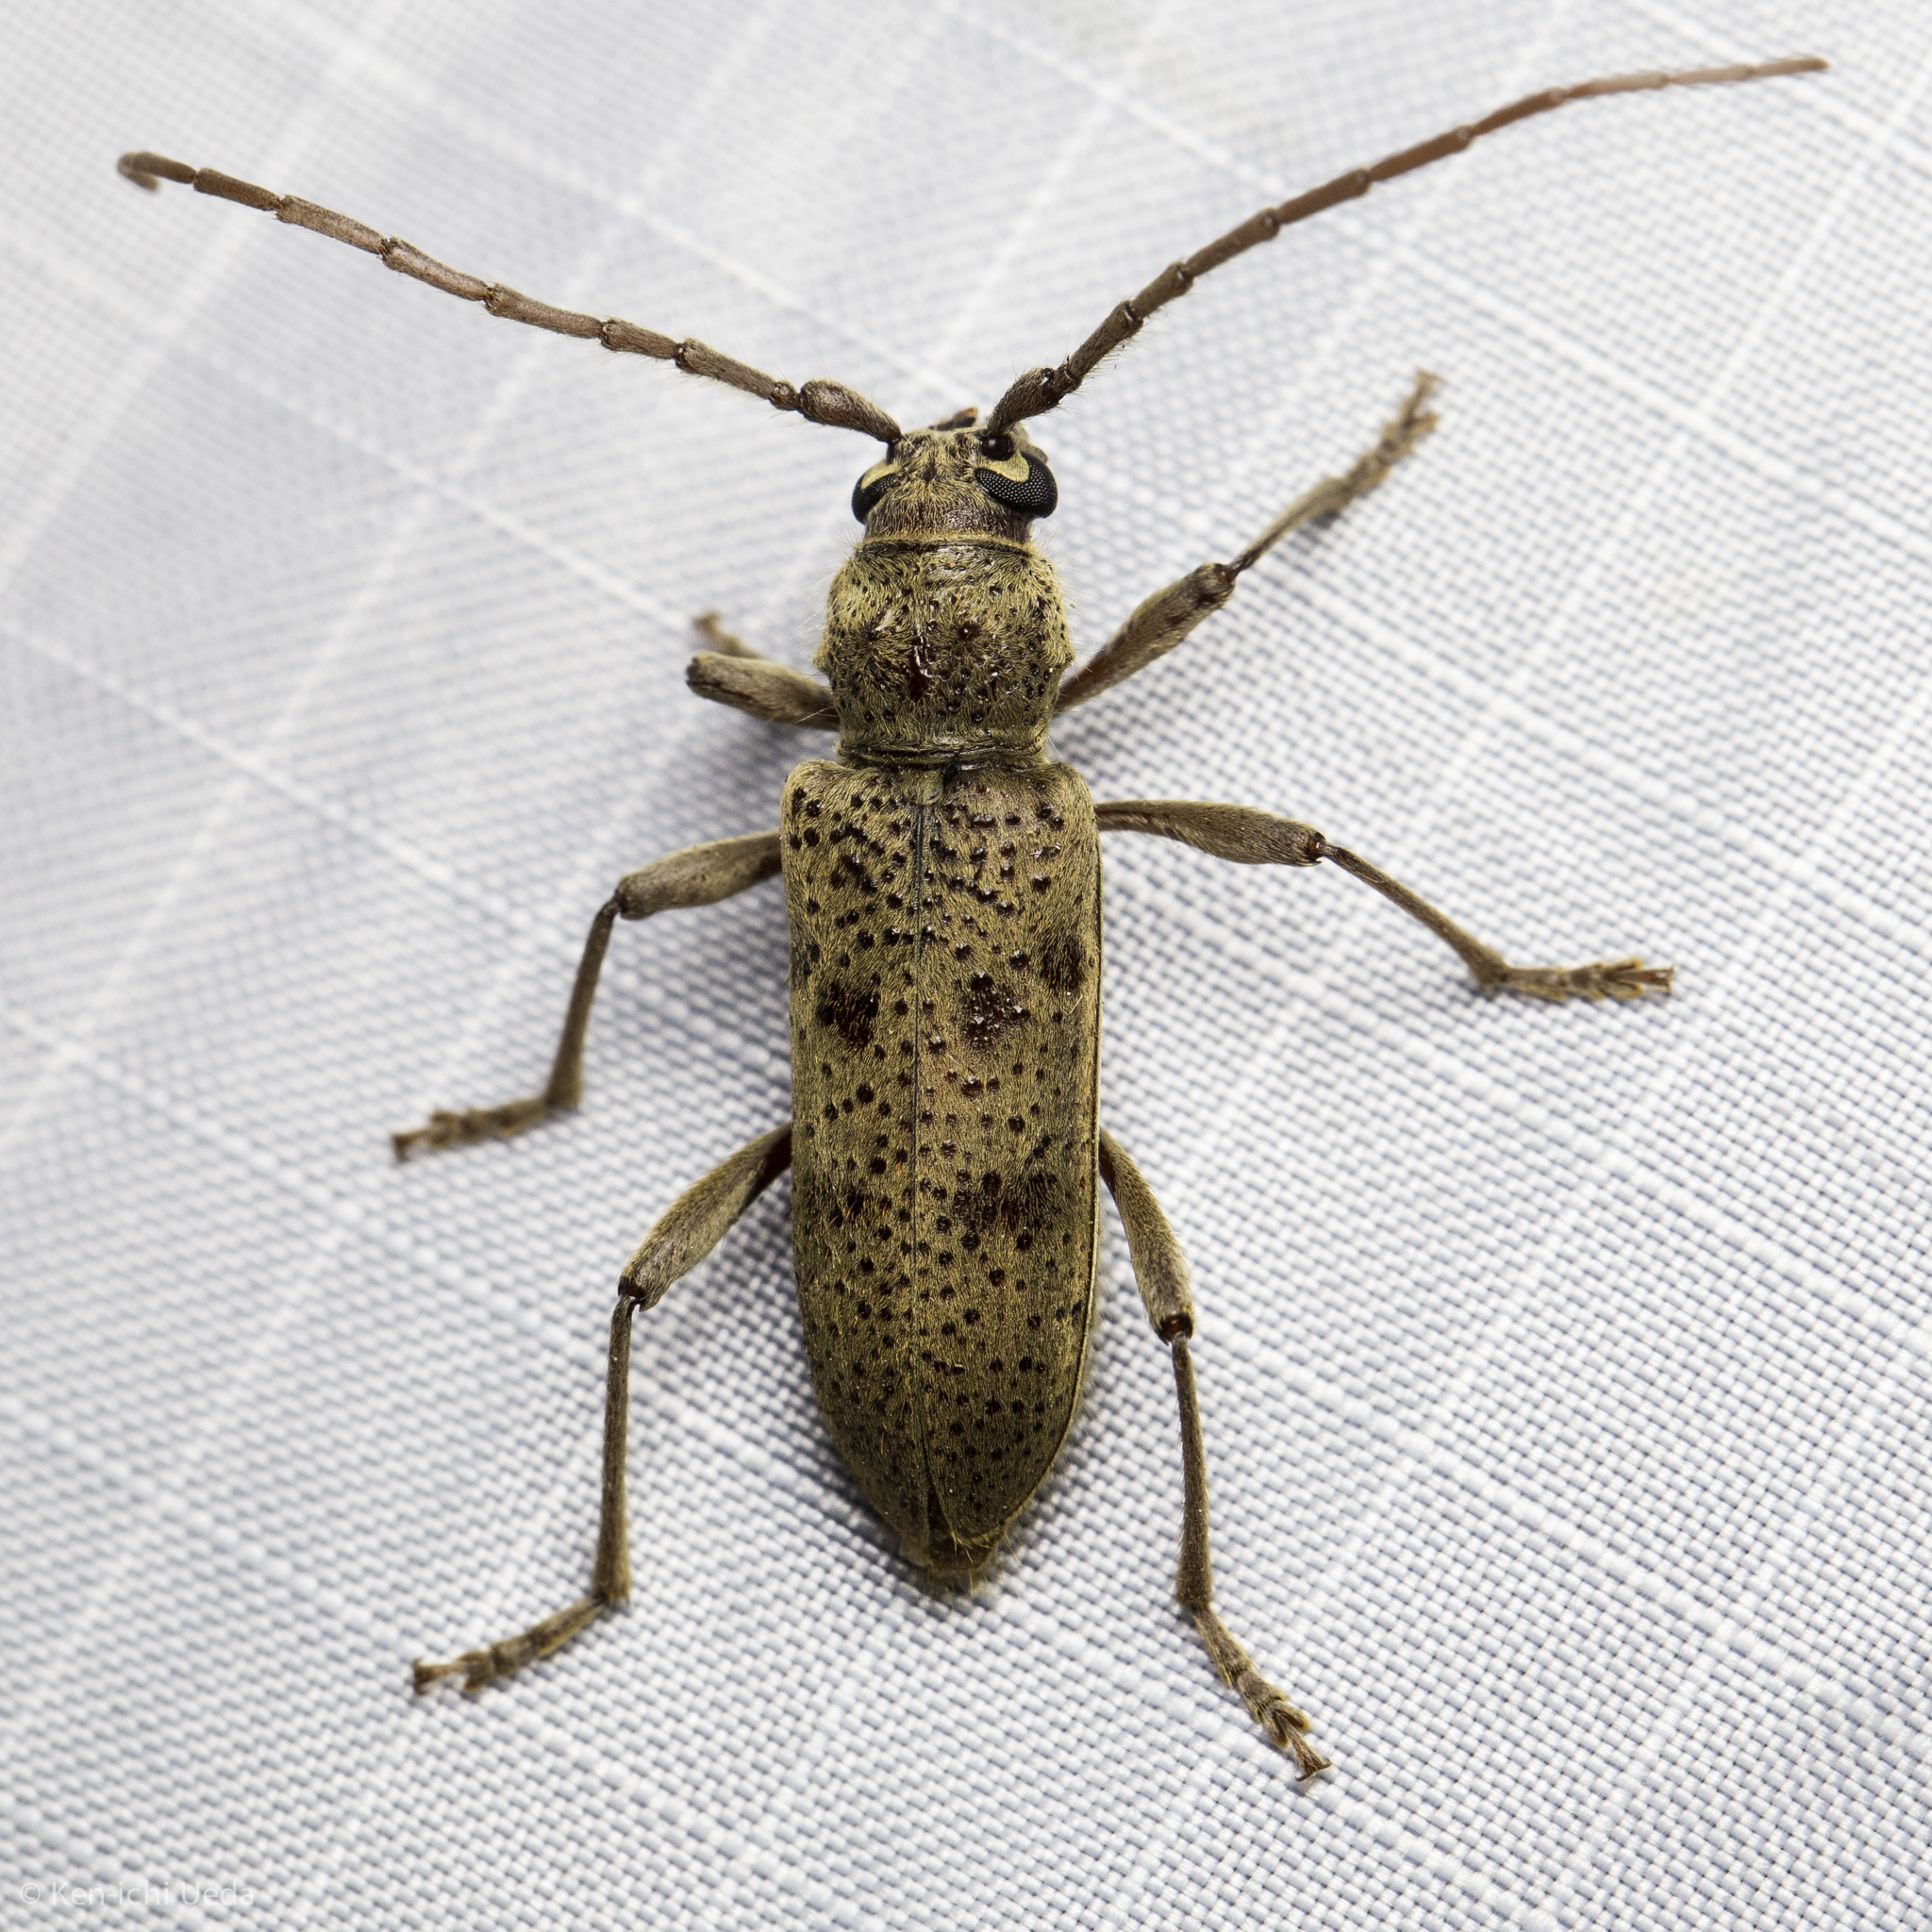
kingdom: Animalia
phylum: Arthropoda
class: Insecta
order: Coleoptera
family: Cerambycidae
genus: Brothylus
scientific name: Brothylus gemmulatus
